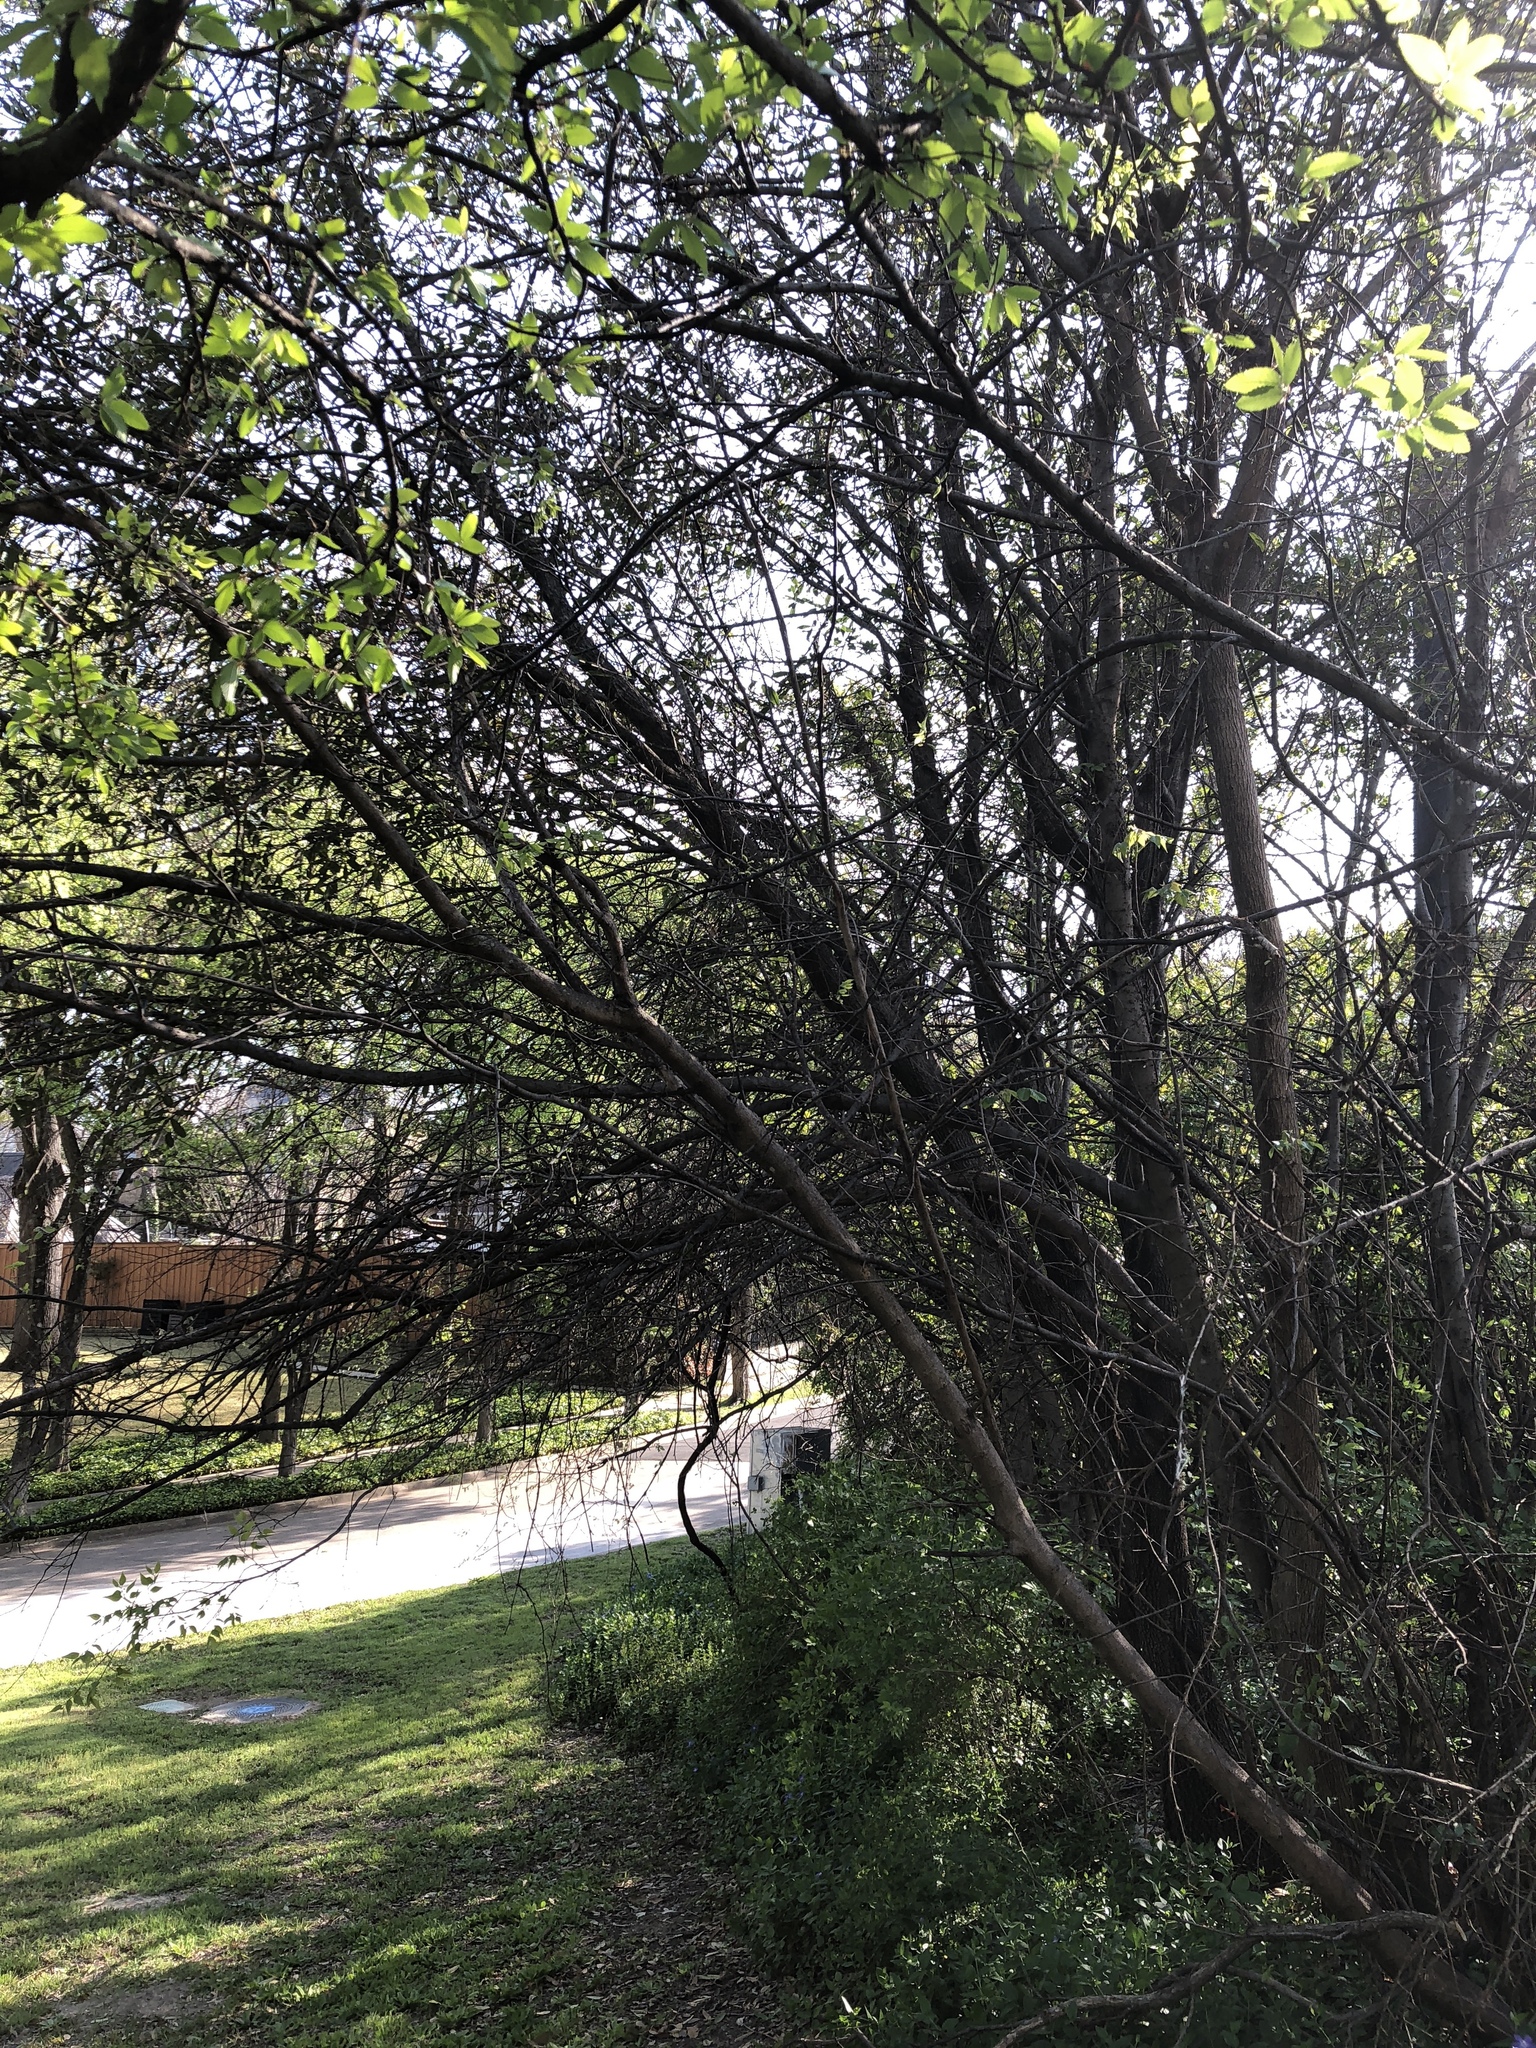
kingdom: Plantae
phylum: Tracheophyta
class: Magnoliopsida
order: Rosales
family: Cannabaceae
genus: Celtis
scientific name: Celtis laevigata
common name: Sugarberry
